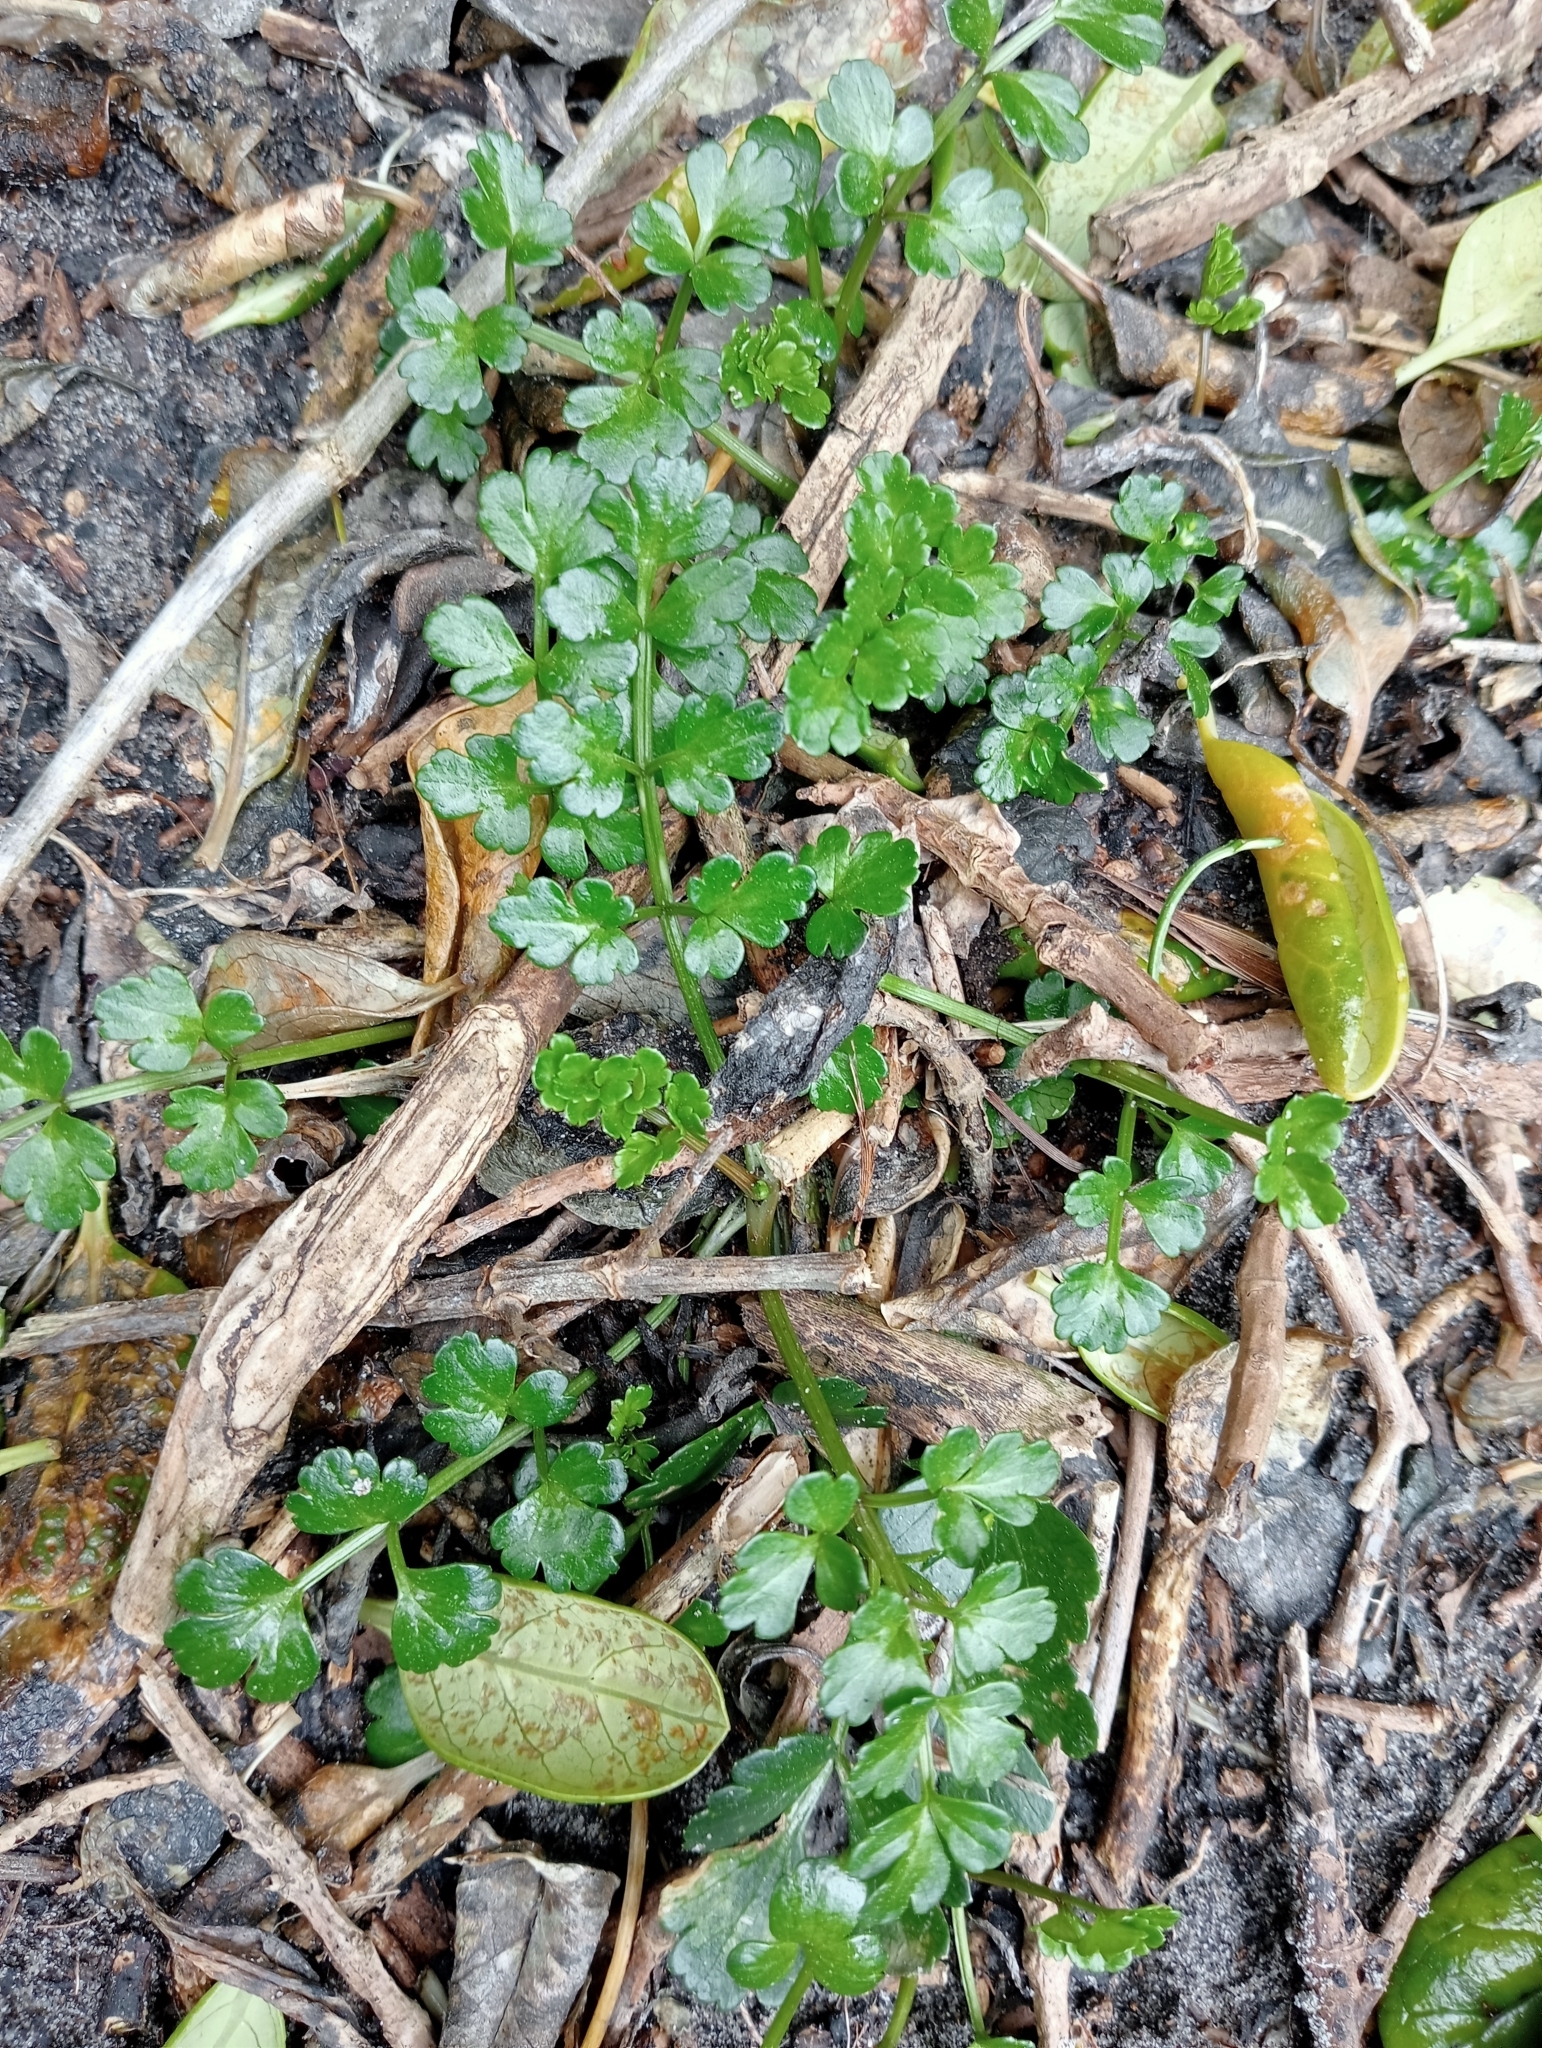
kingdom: Plantae
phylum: Tracheophyta
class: Magnoliopsida
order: Apiales
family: Apiaceae
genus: Apium
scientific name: Apium prostratum
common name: Prostrate marshwort
